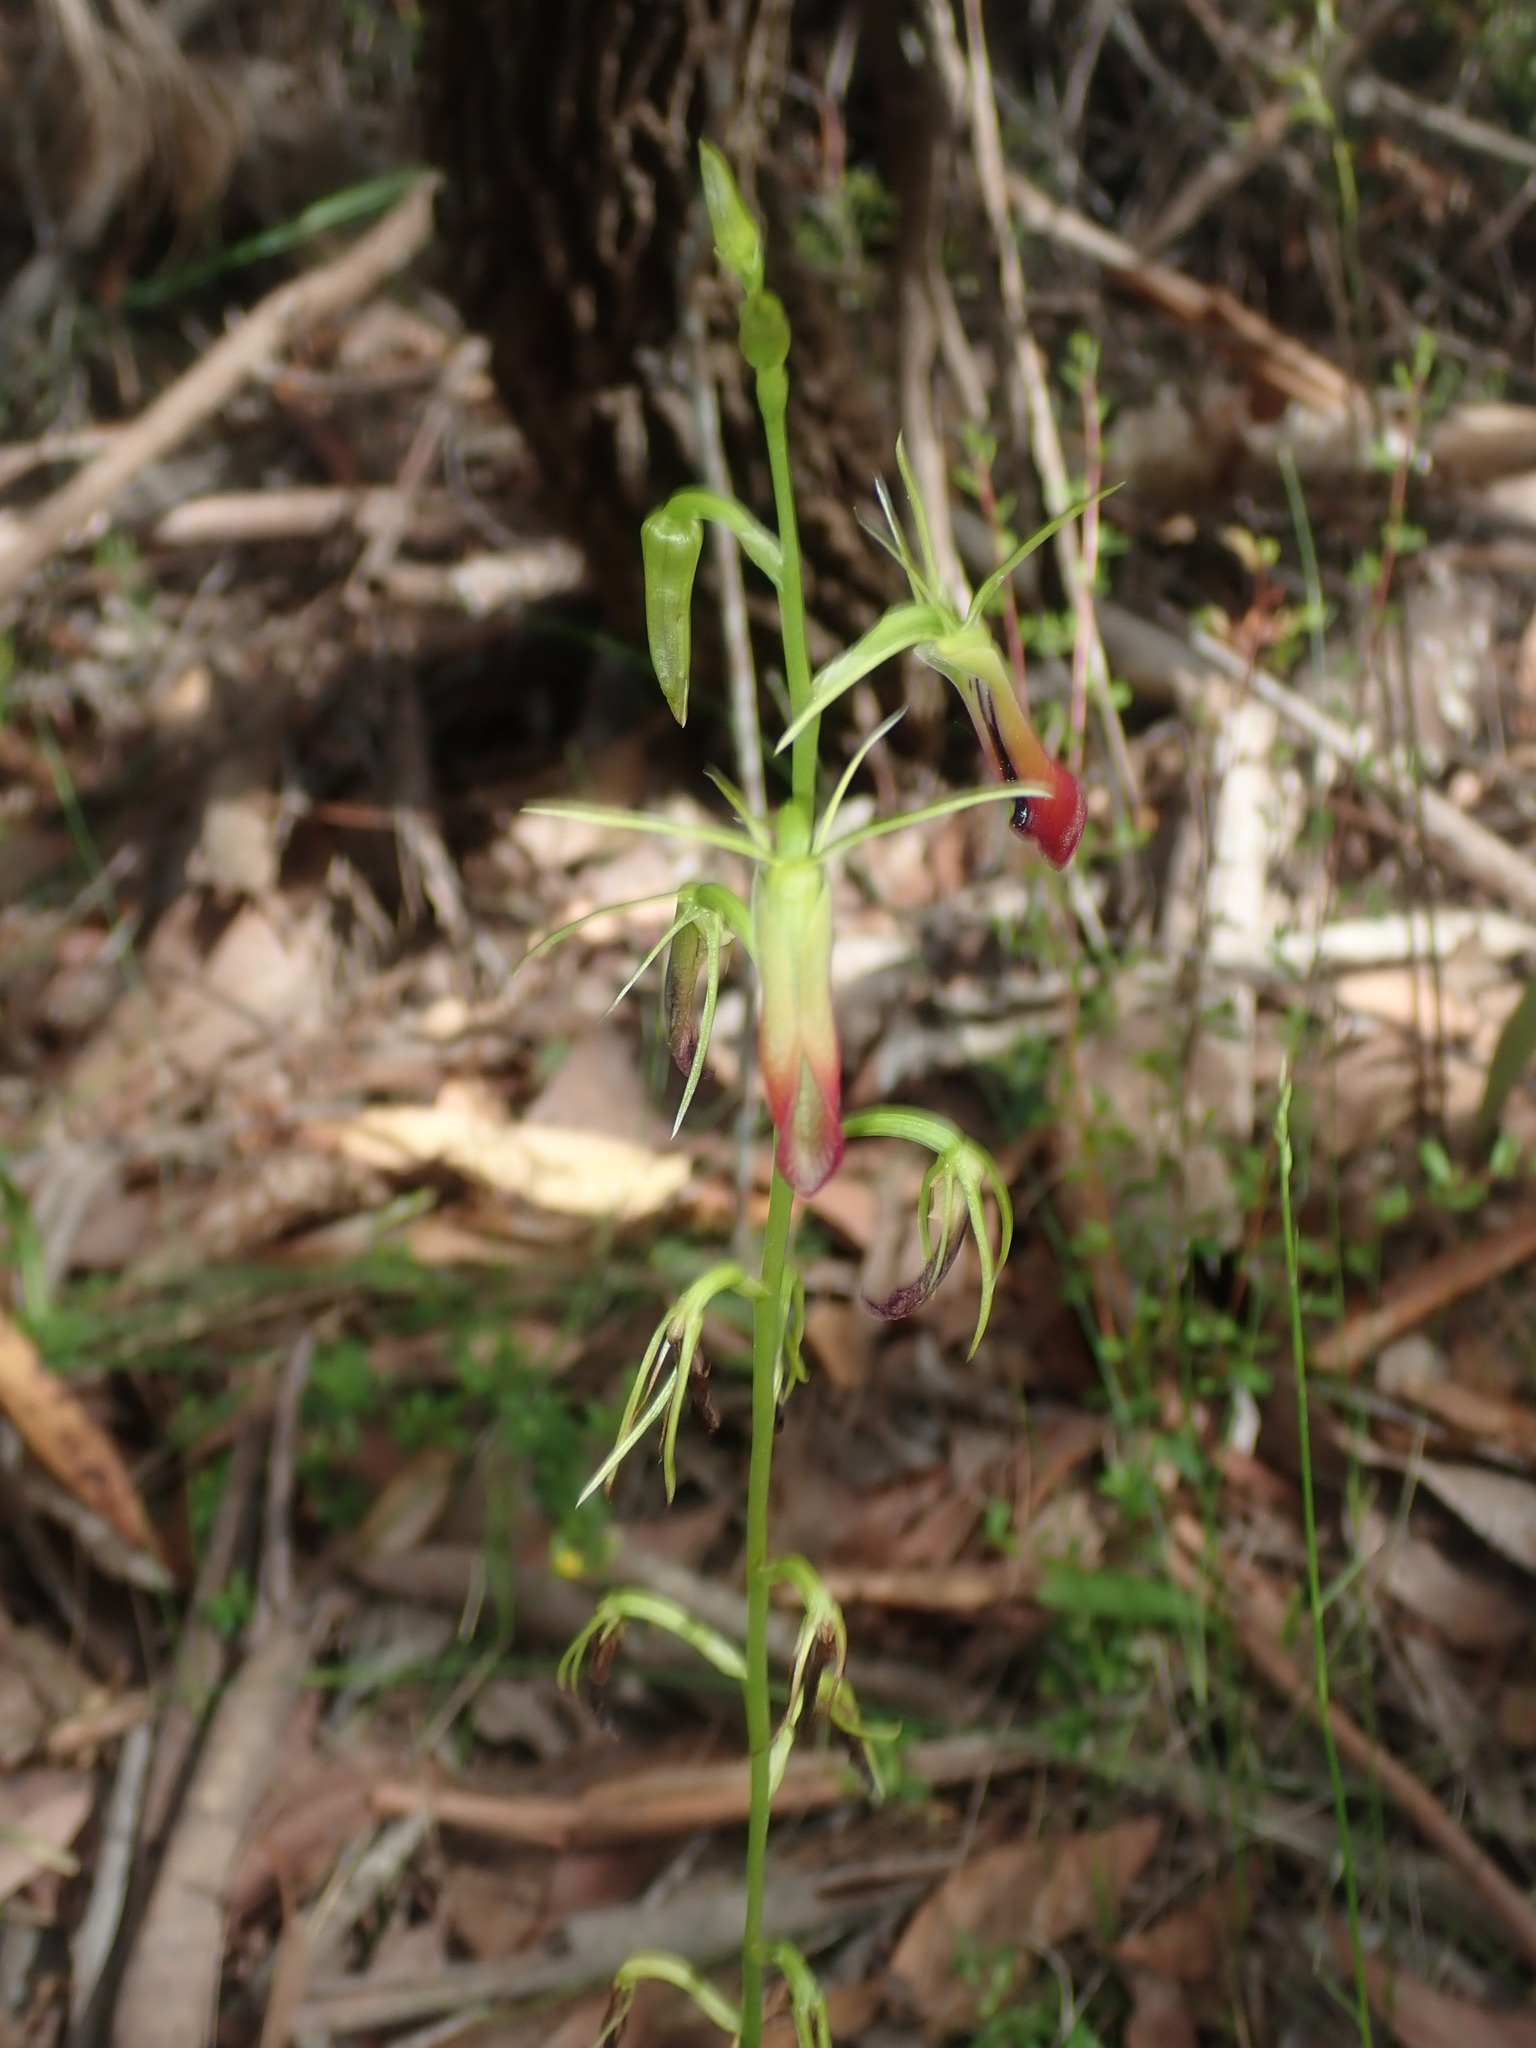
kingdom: Plantae
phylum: Tracheophyta
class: Liliopsida
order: Asparagales
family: Orchidaceae
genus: Cryptostylis
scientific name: Cryptostylis subulata
